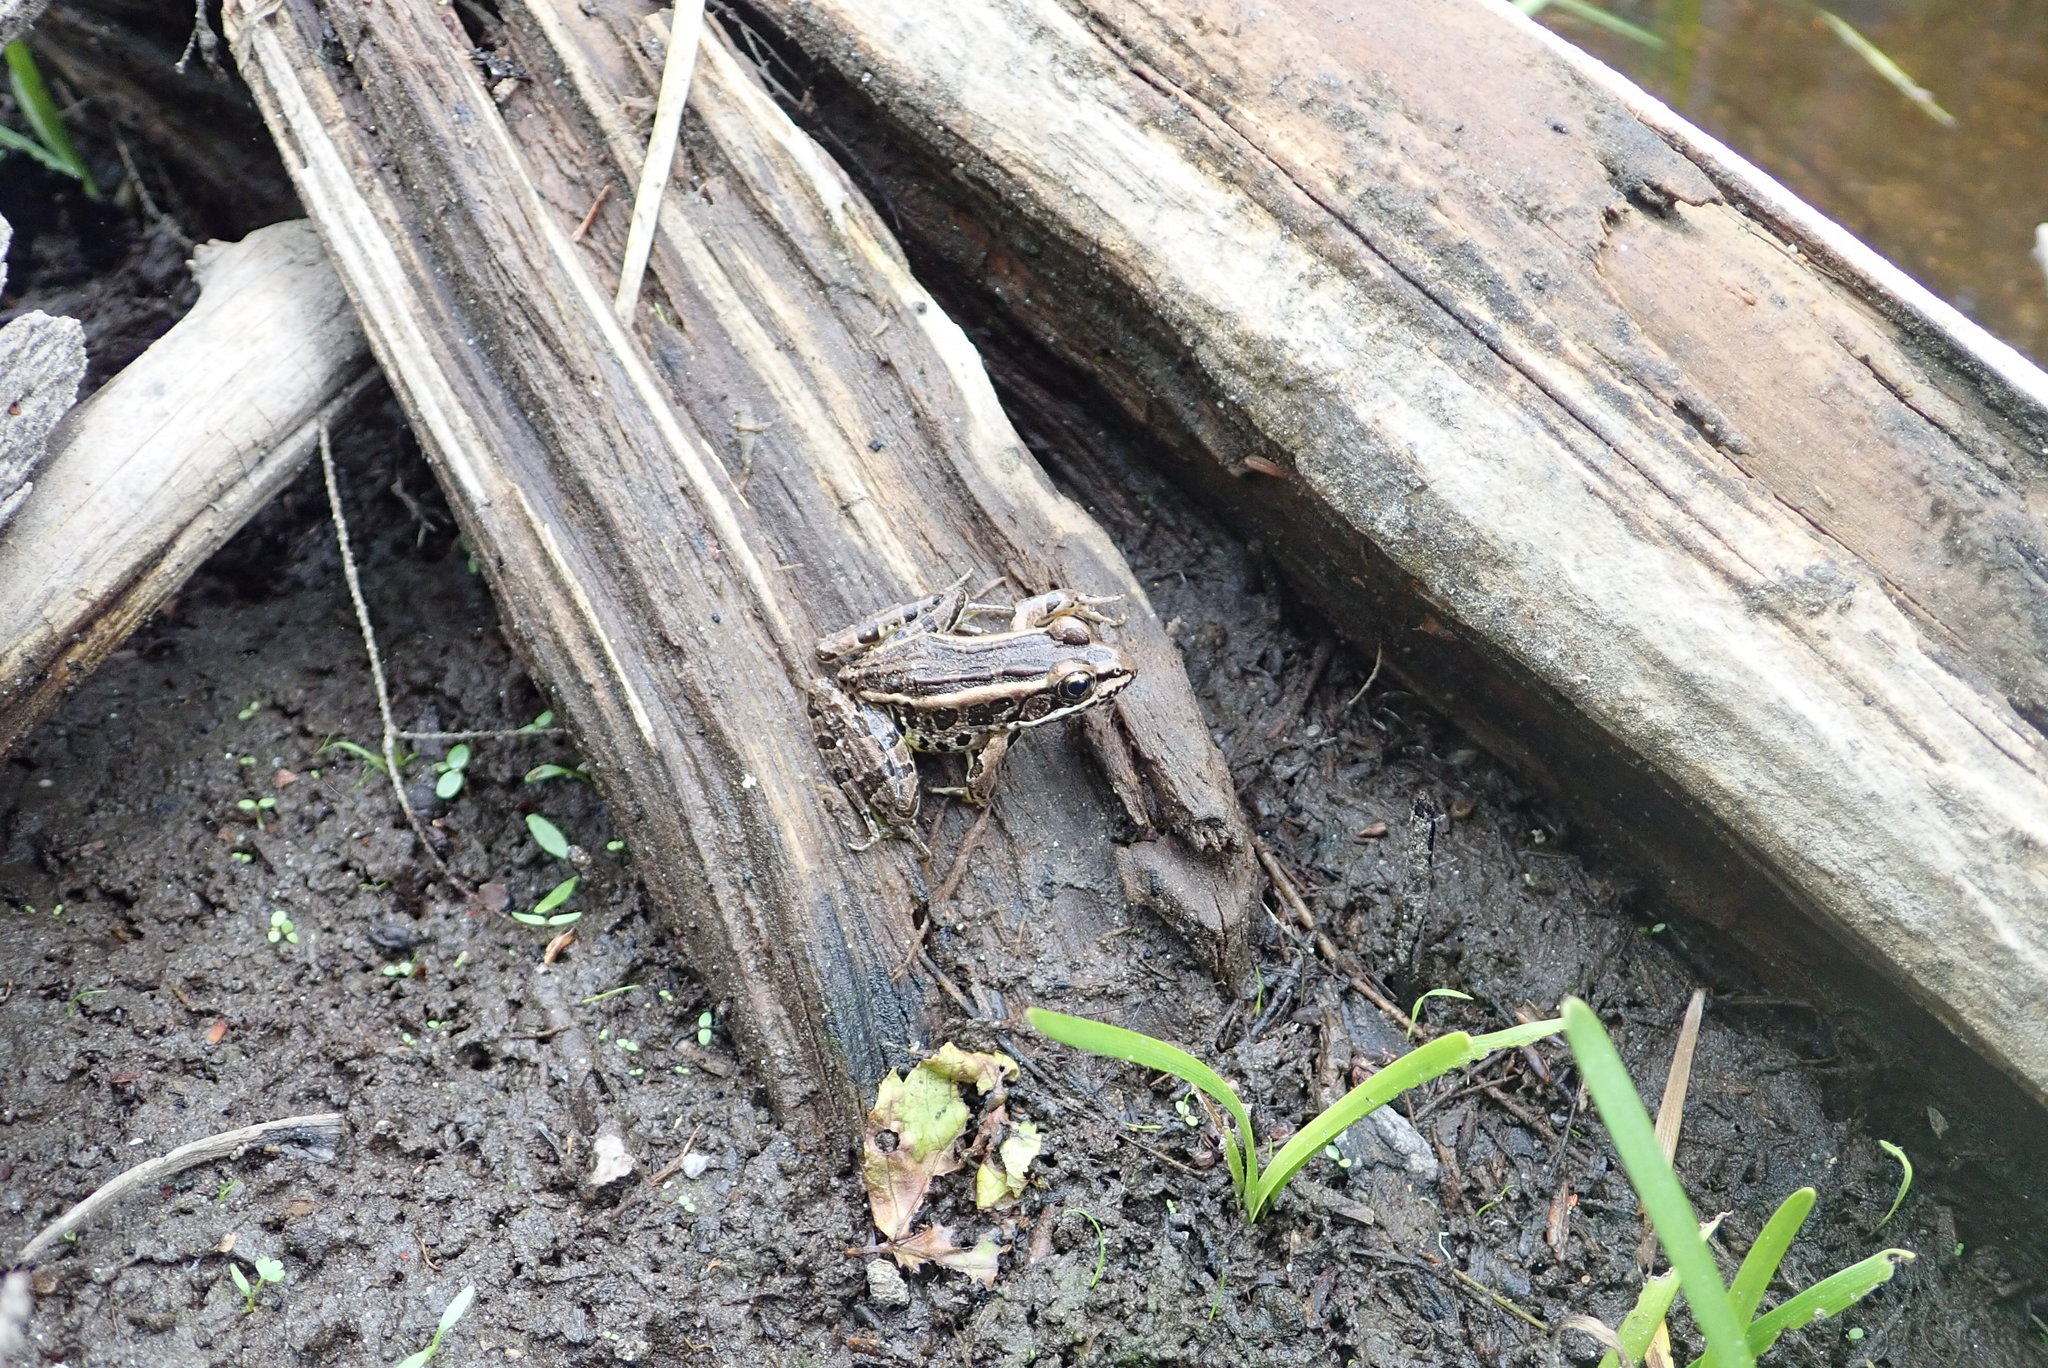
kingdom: Animalia
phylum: Chordata
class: Amphibia
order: Anura
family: Ranidae
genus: Lithobates
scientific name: Lithobates palustris
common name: Pickerel frog
